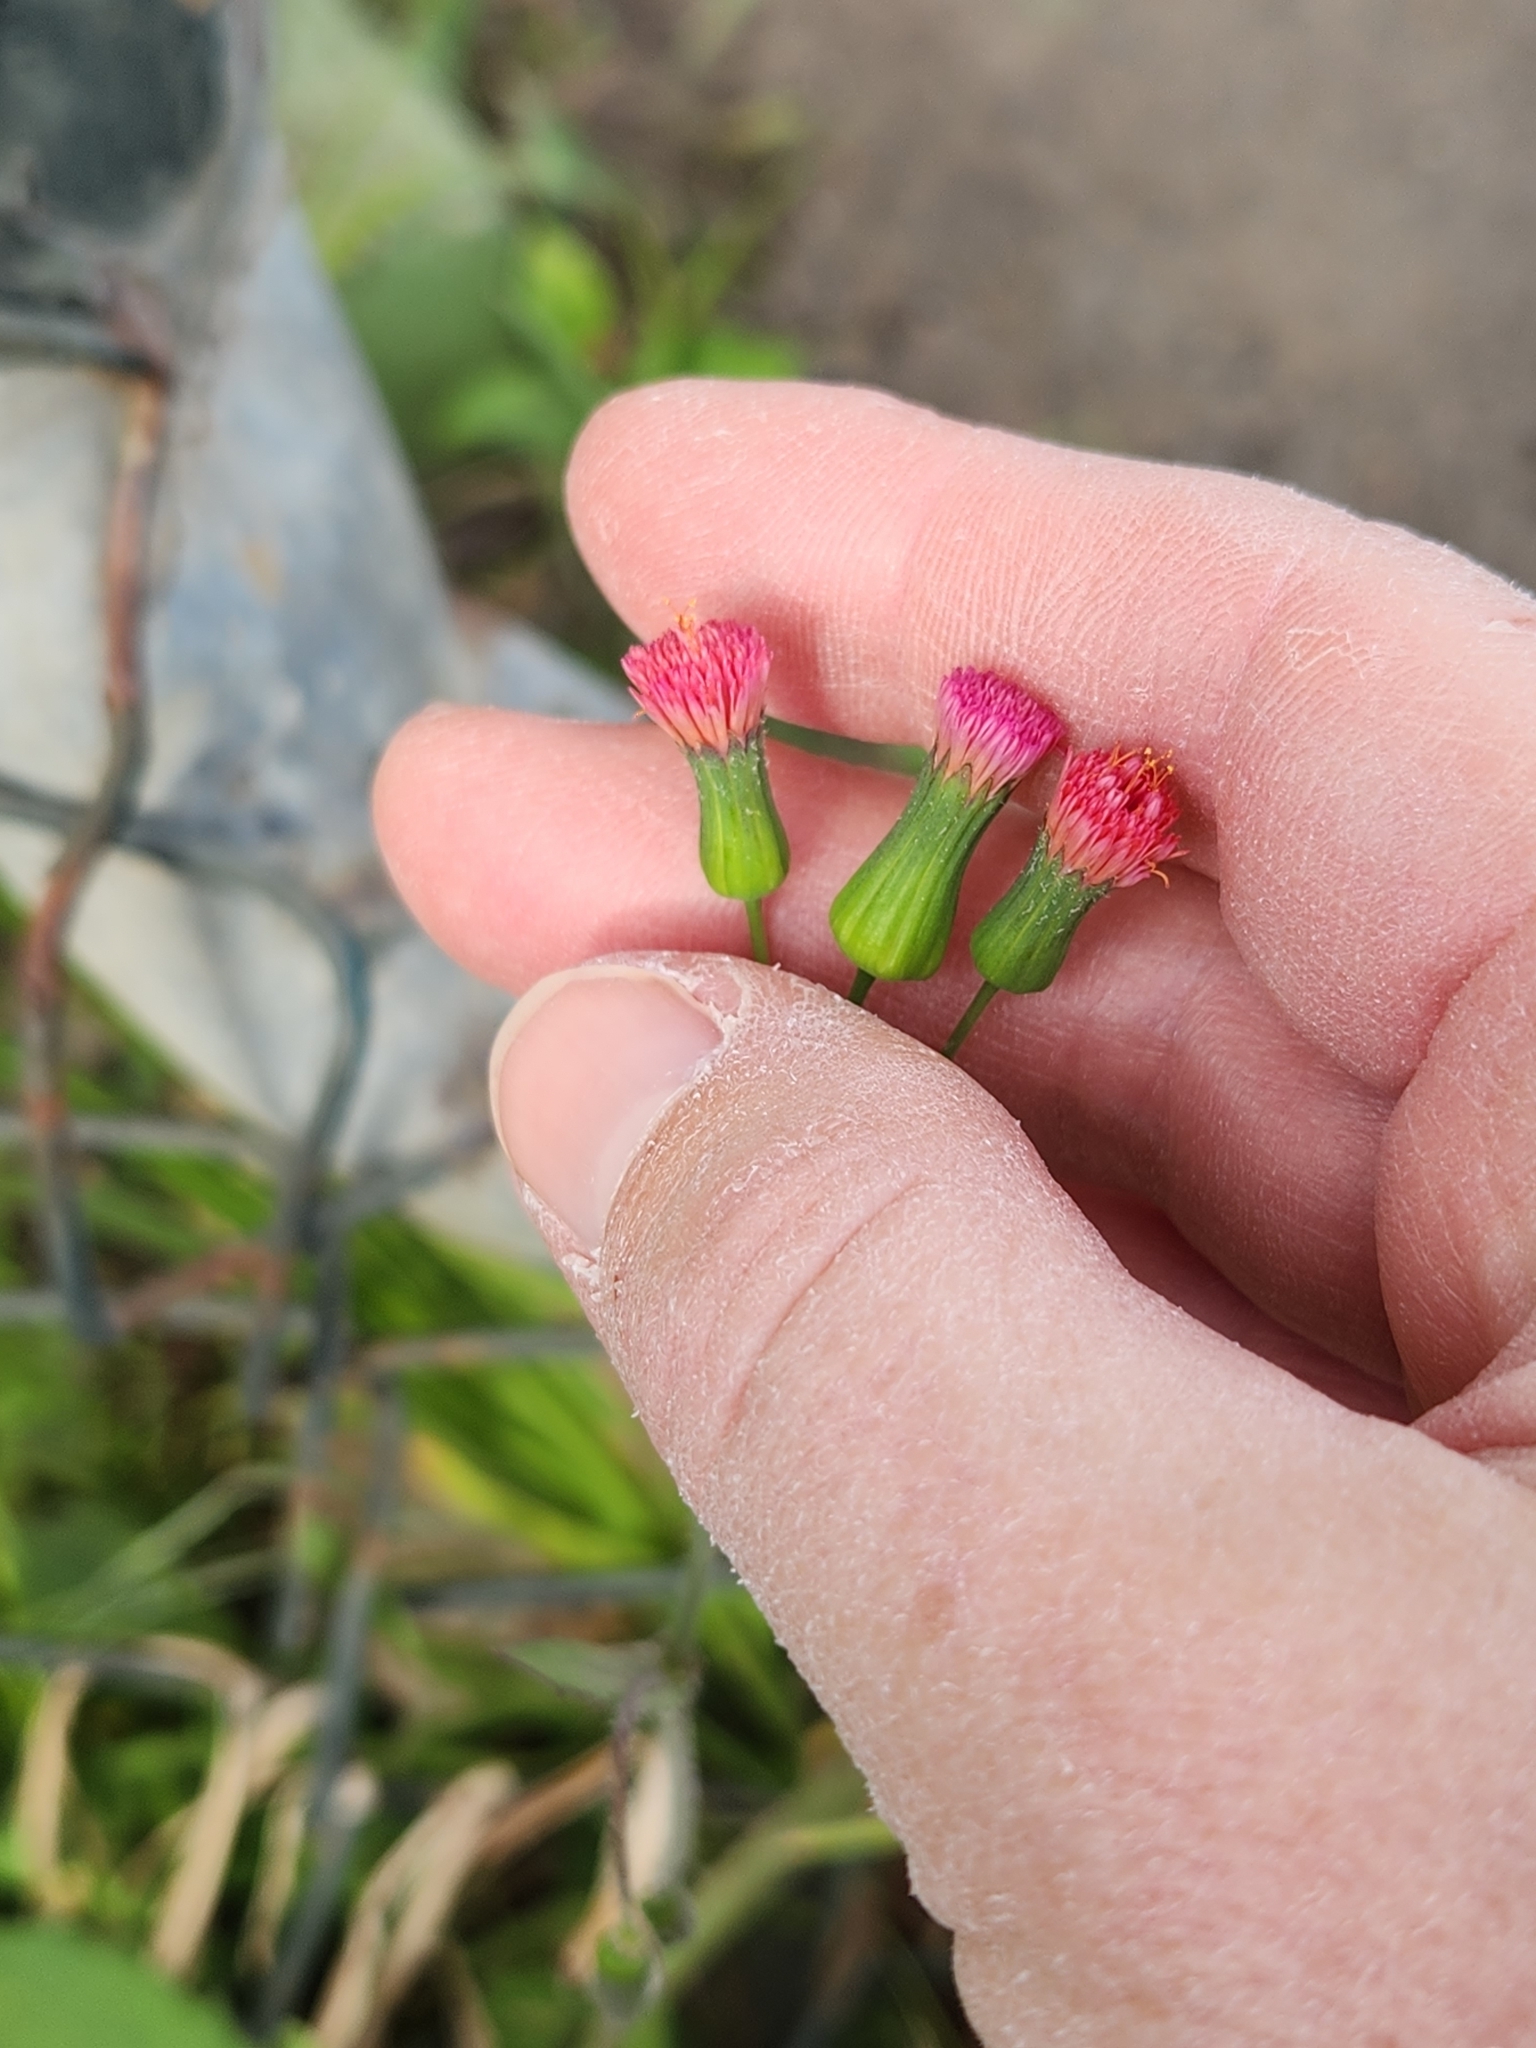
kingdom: Plantae
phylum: Tracheophyta
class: Magnoliopsida
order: Asterales
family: Asteraceae
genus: Emilia
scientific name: Emilia fosbergii
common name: Florida tasselflower
